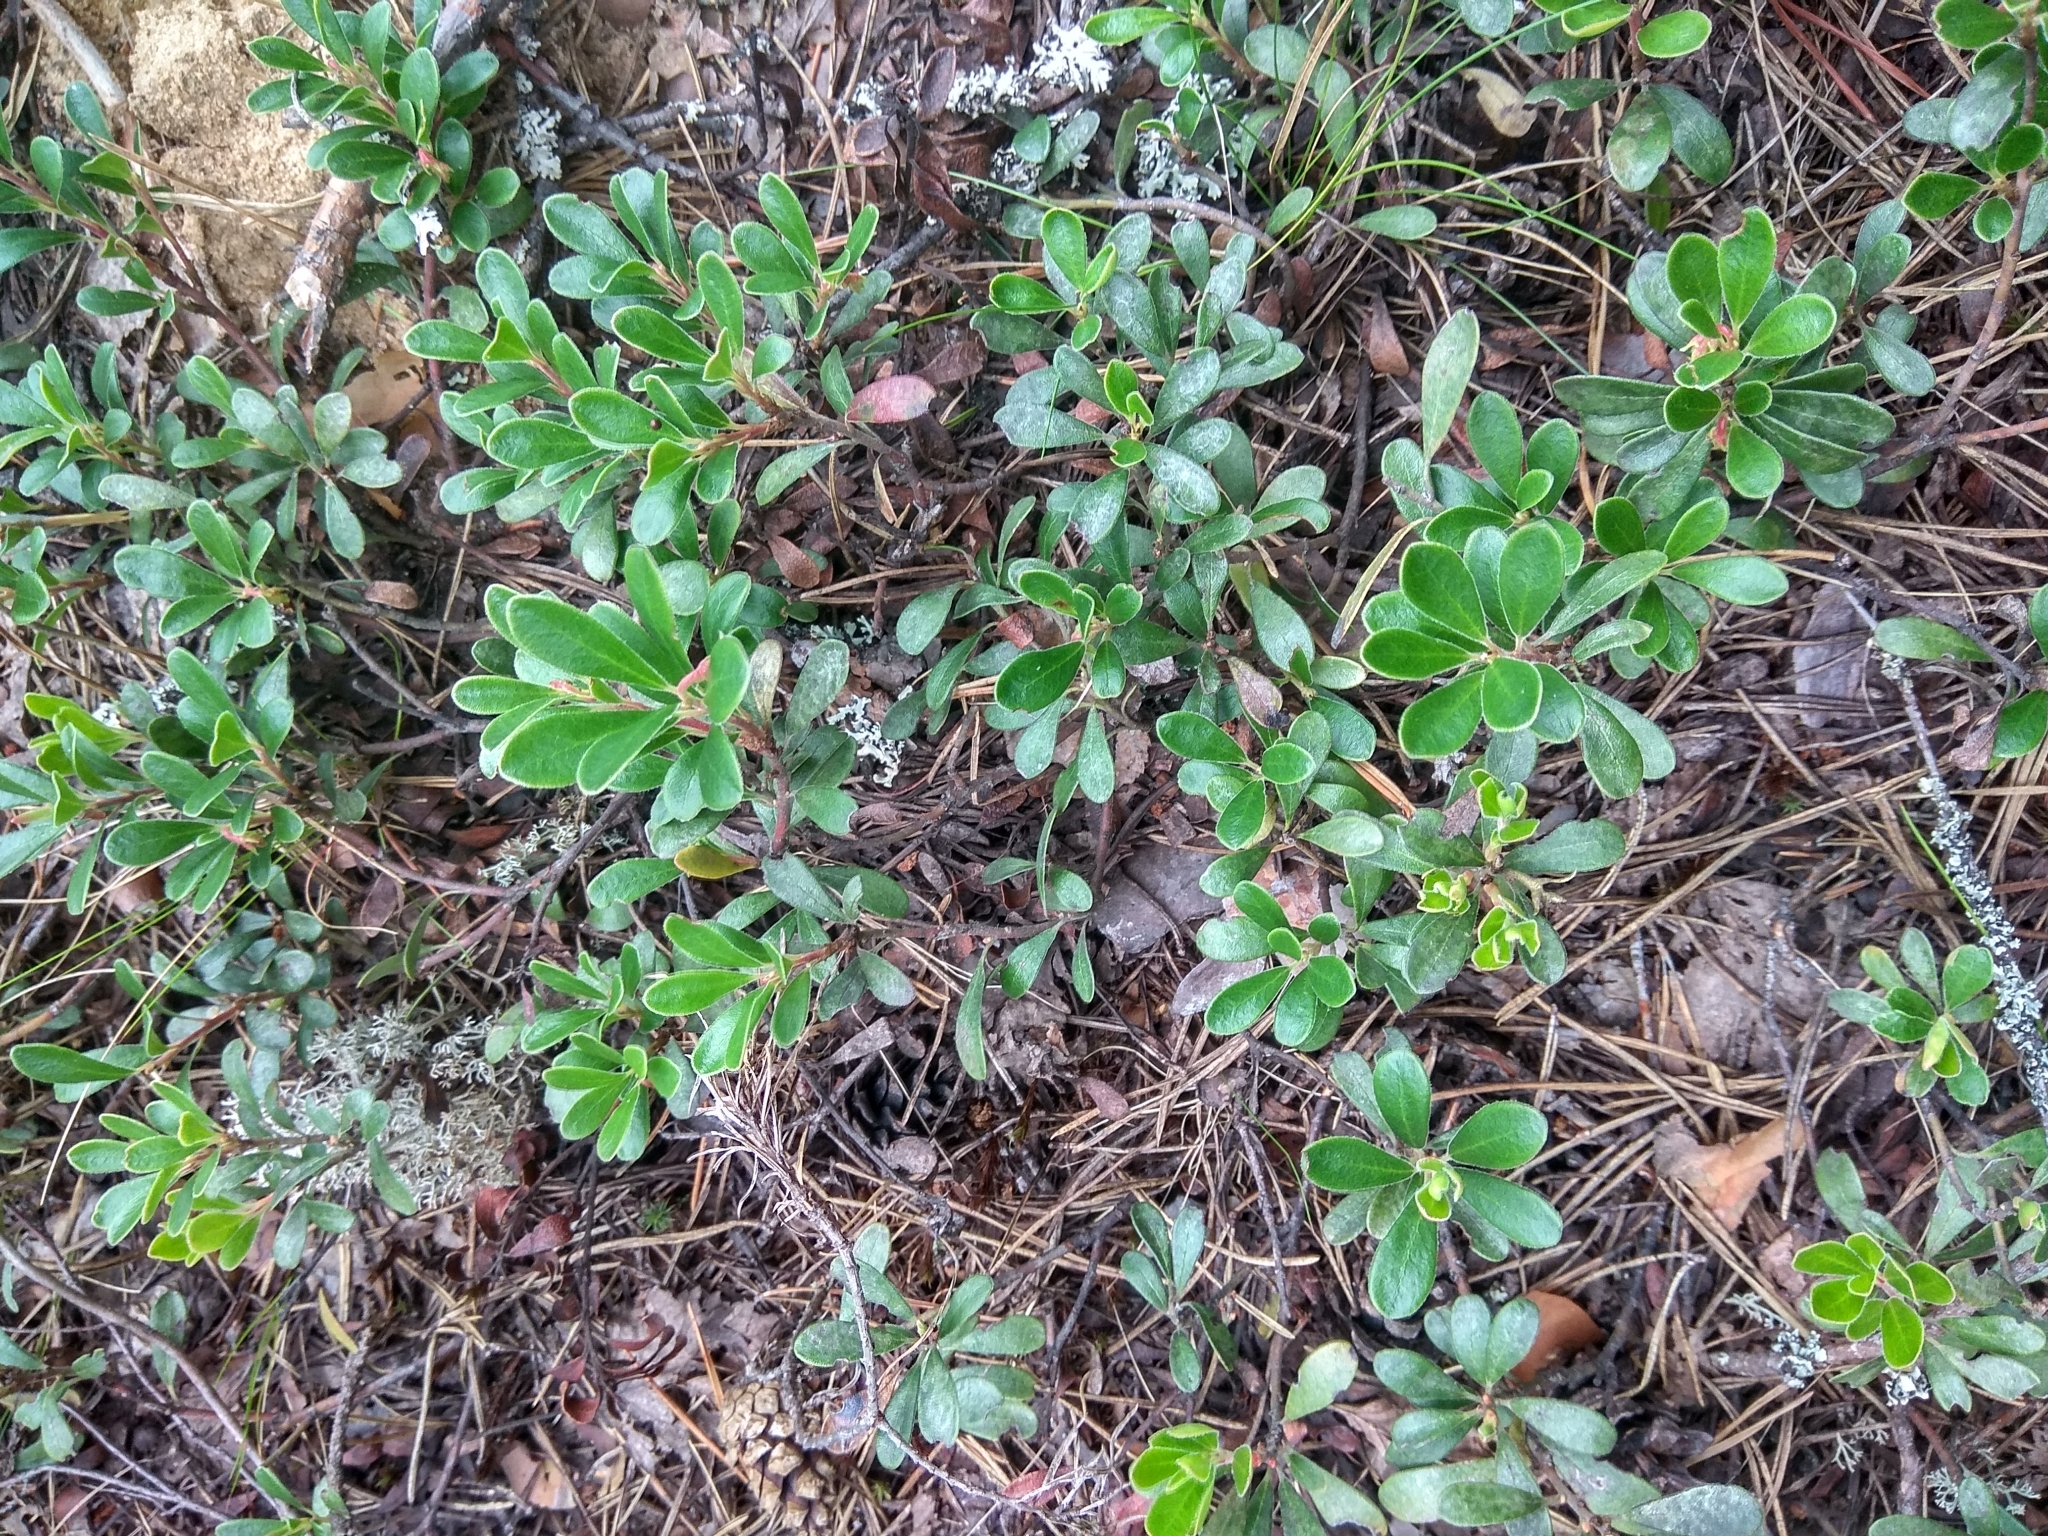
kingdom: Plantae
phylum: Tracheophyta
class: Magnoliopsida
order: Ericales
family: Ericaceae
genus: Arctostaphylos
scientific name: Arctostaphylos uva-ursi
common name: Bearberry
